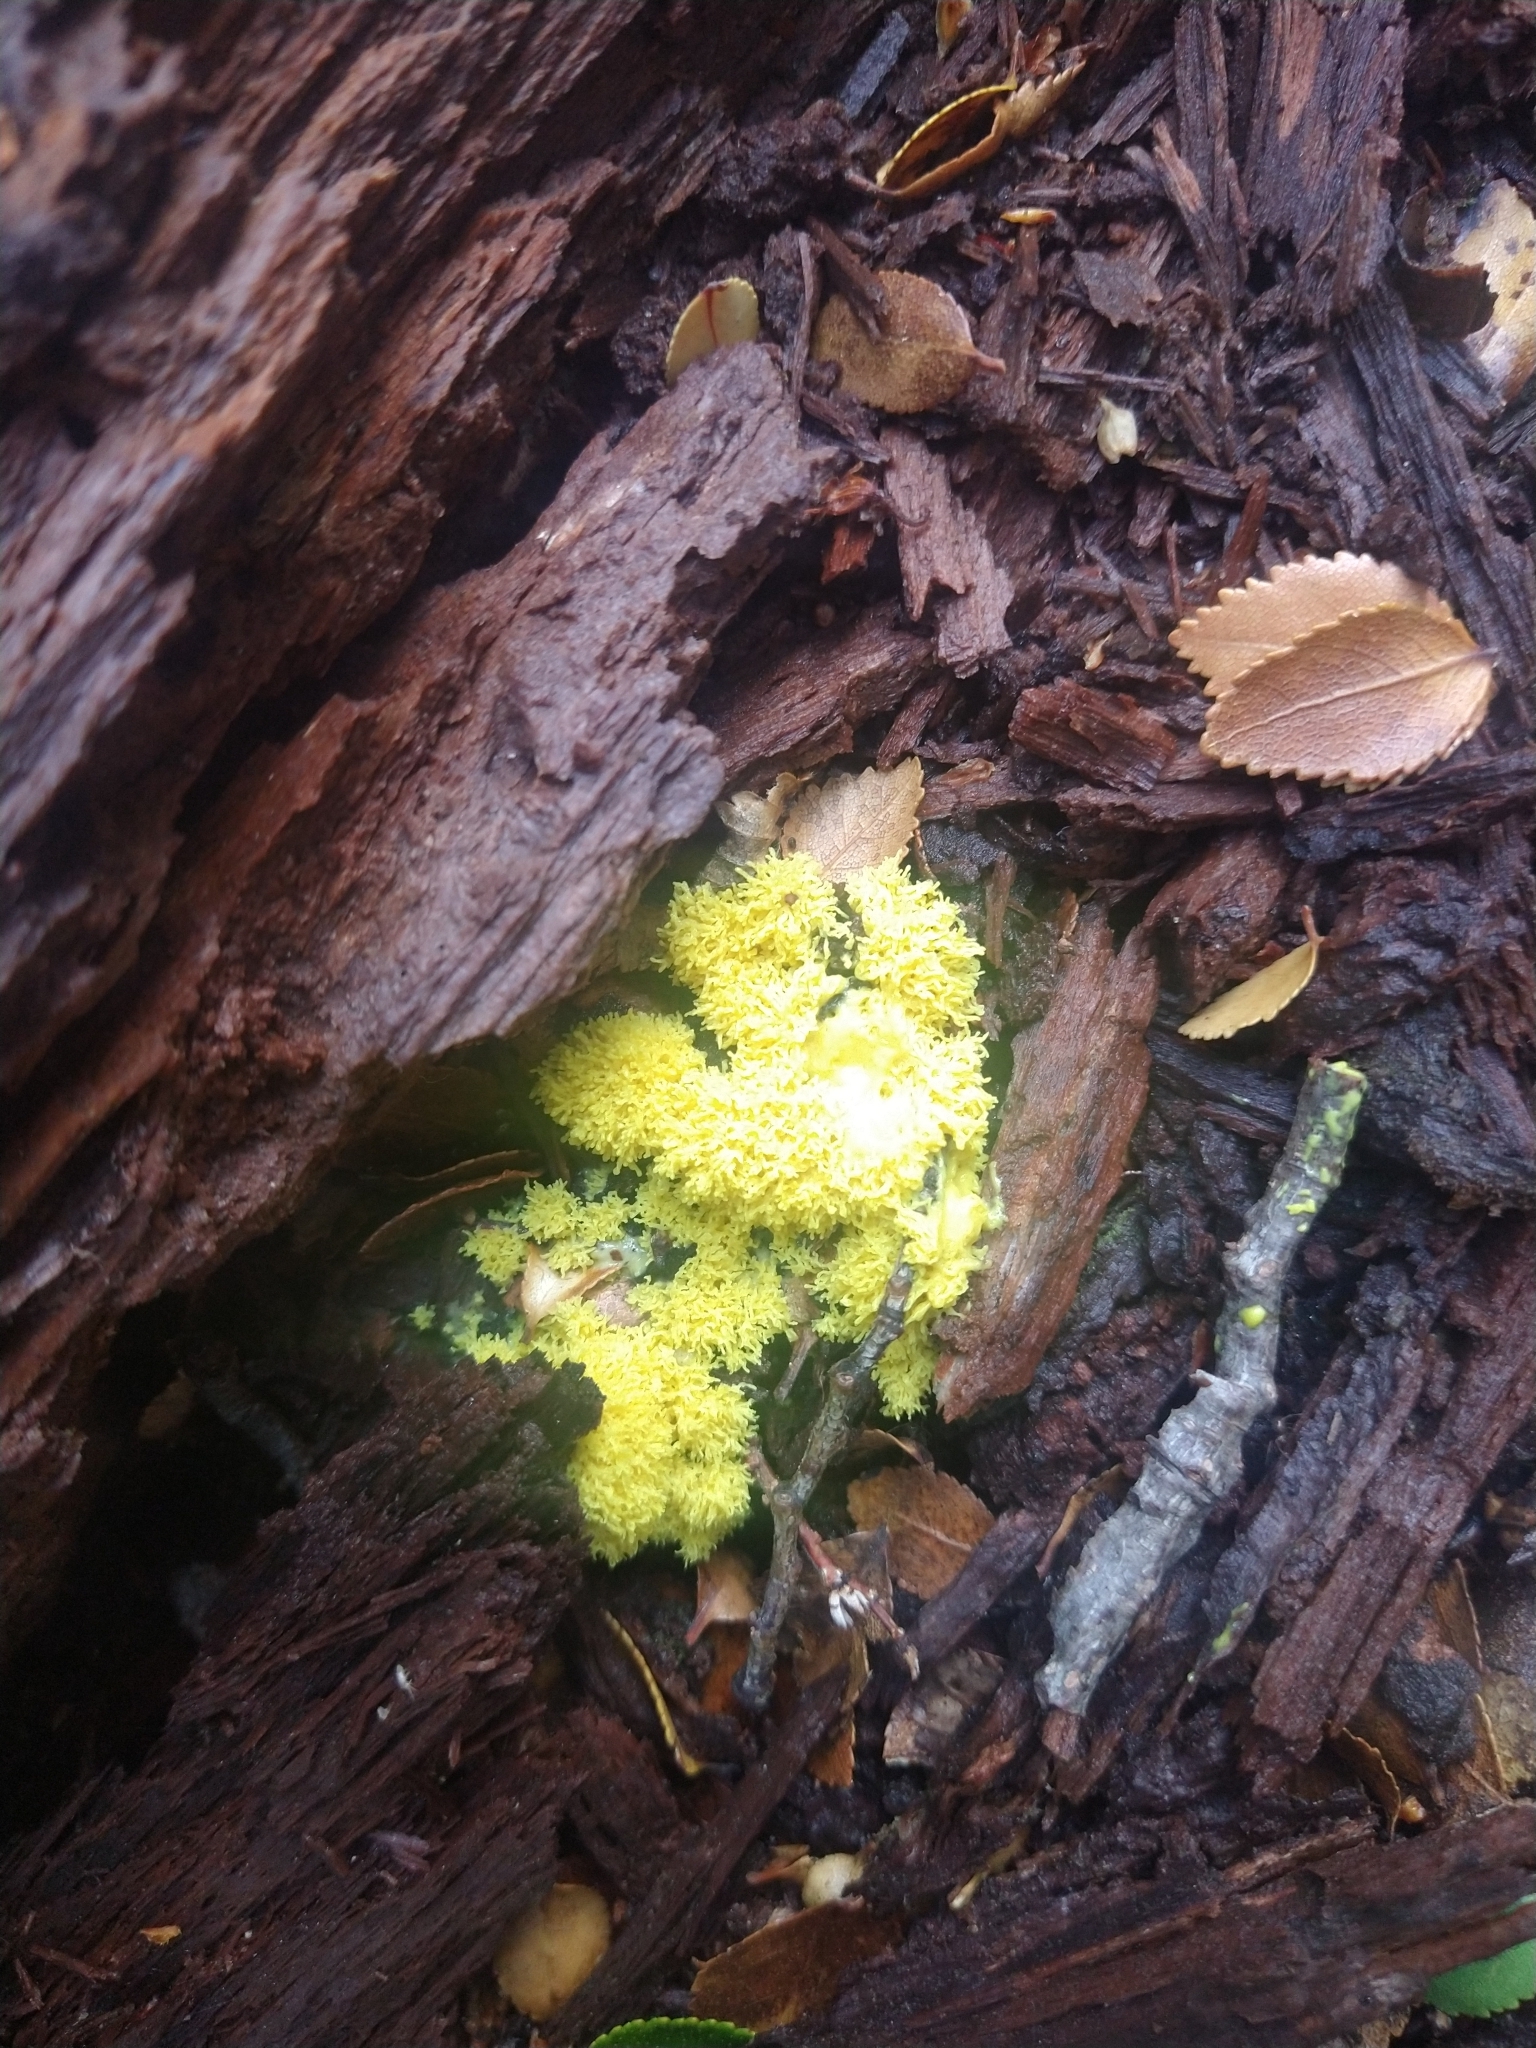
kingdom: Protozoa
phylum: Mycetozoa
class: Myxomycetes
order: Physarales
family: Physaraceae
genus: Fuligo
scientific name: Fuligo
